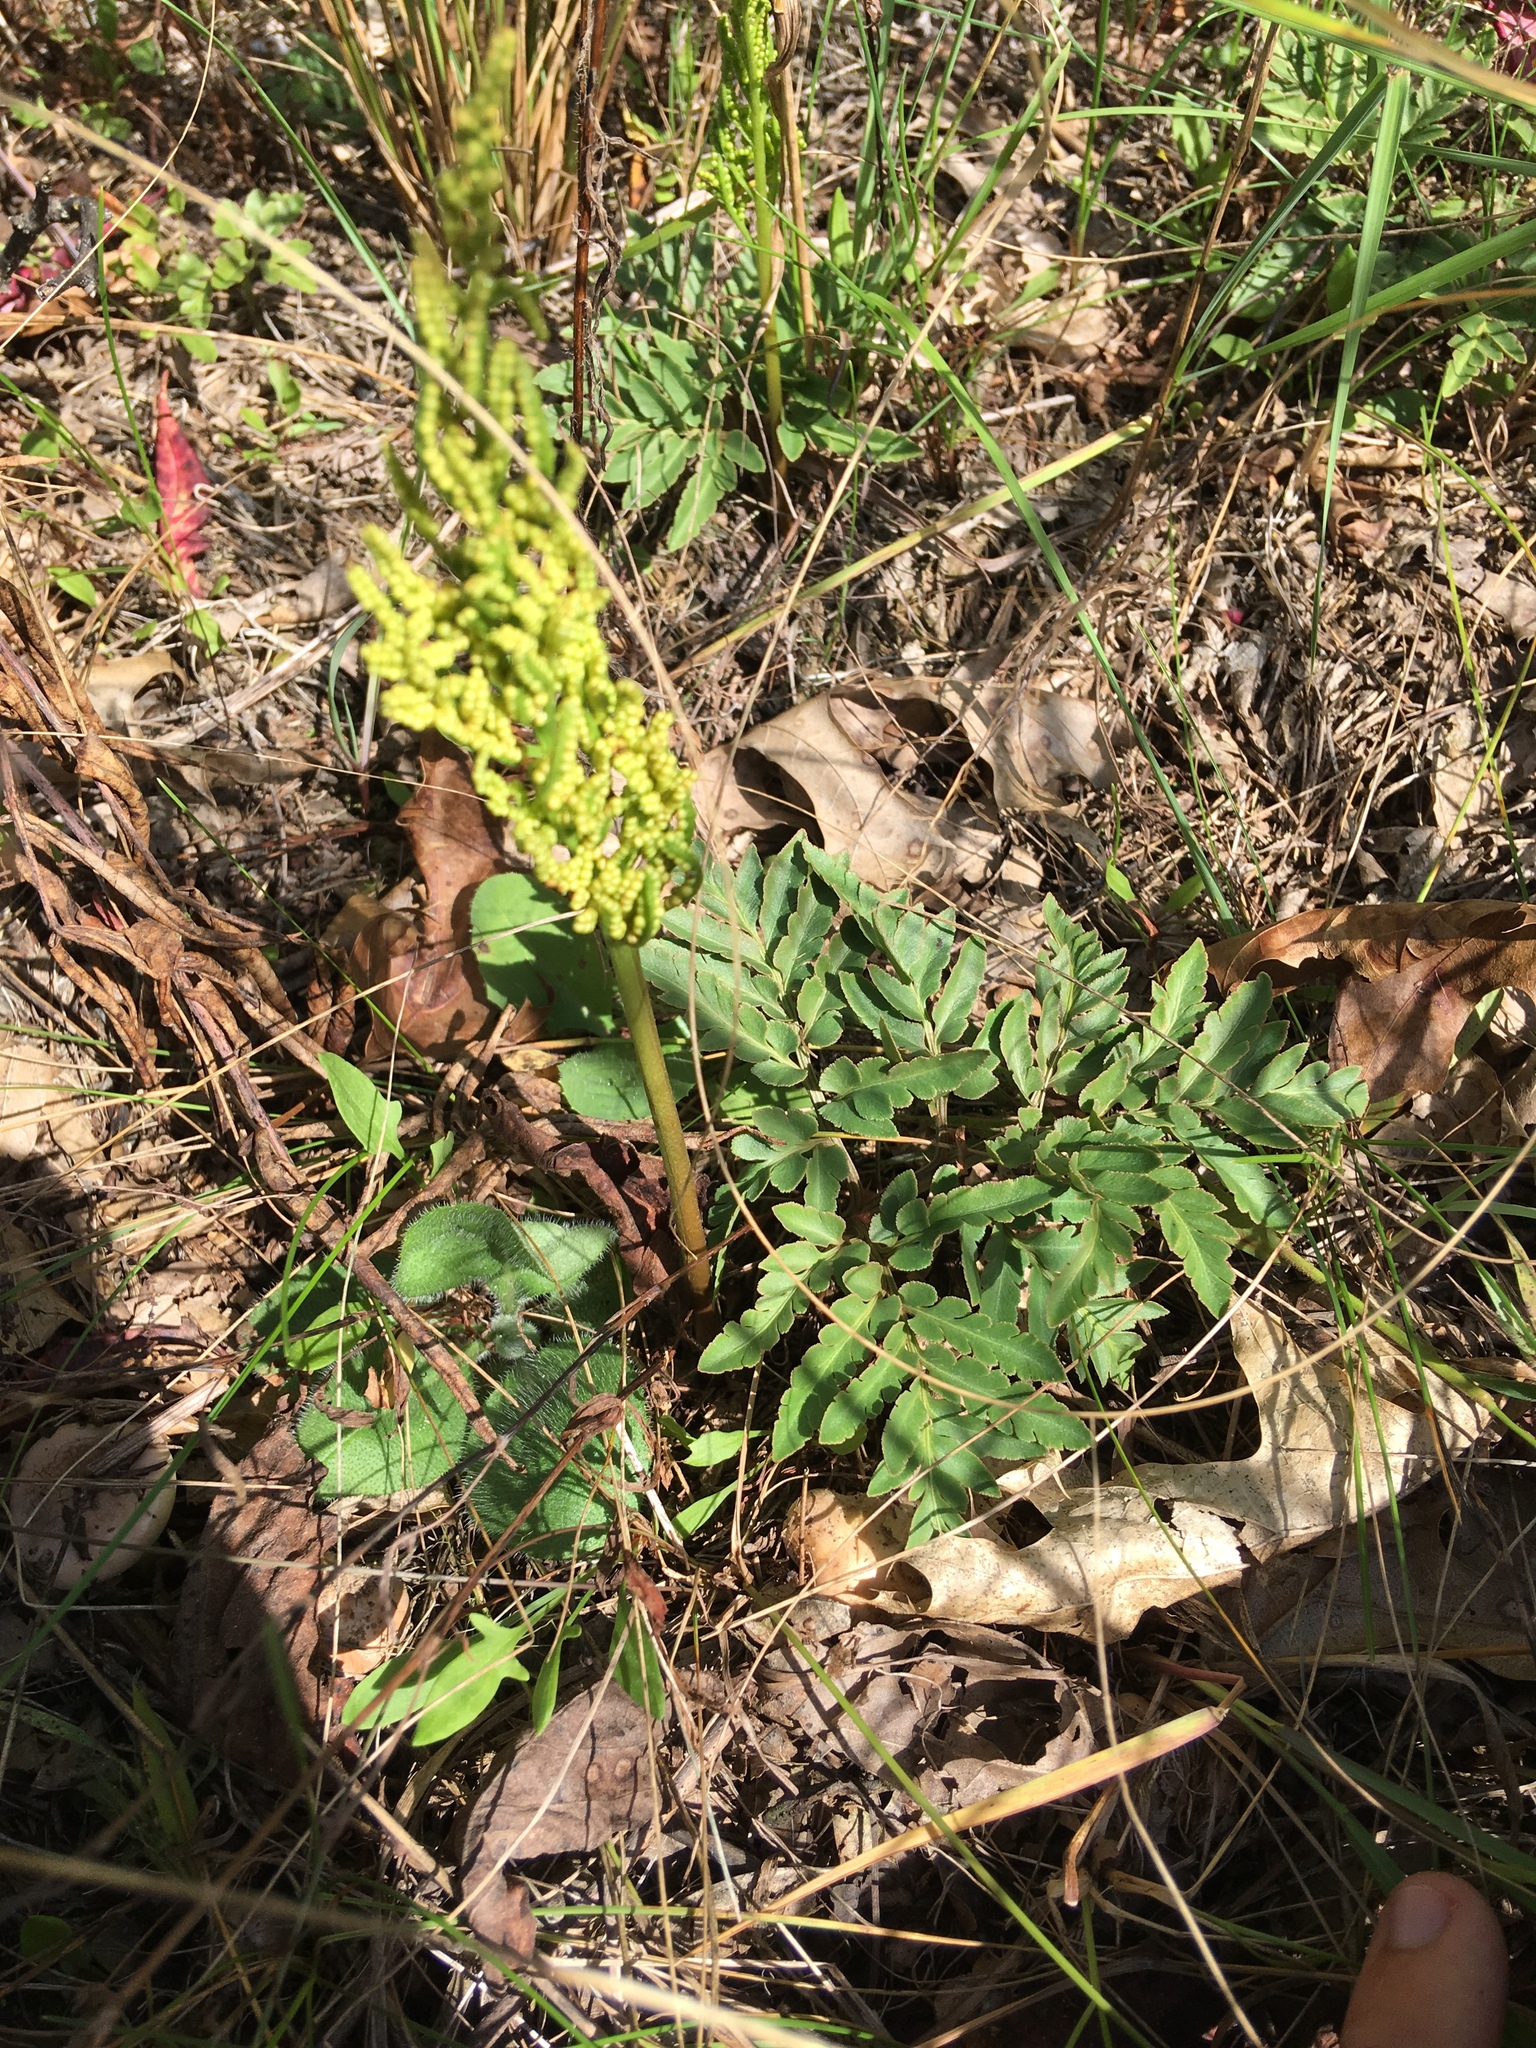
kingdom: Plantae
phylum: Tracheophyta
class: Polypodiopsida
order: Ophioglossales
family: Ophioglossaceae
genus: Sceptridium
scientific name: Sceptridium dissectum
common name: Cut-leaved grapefern
